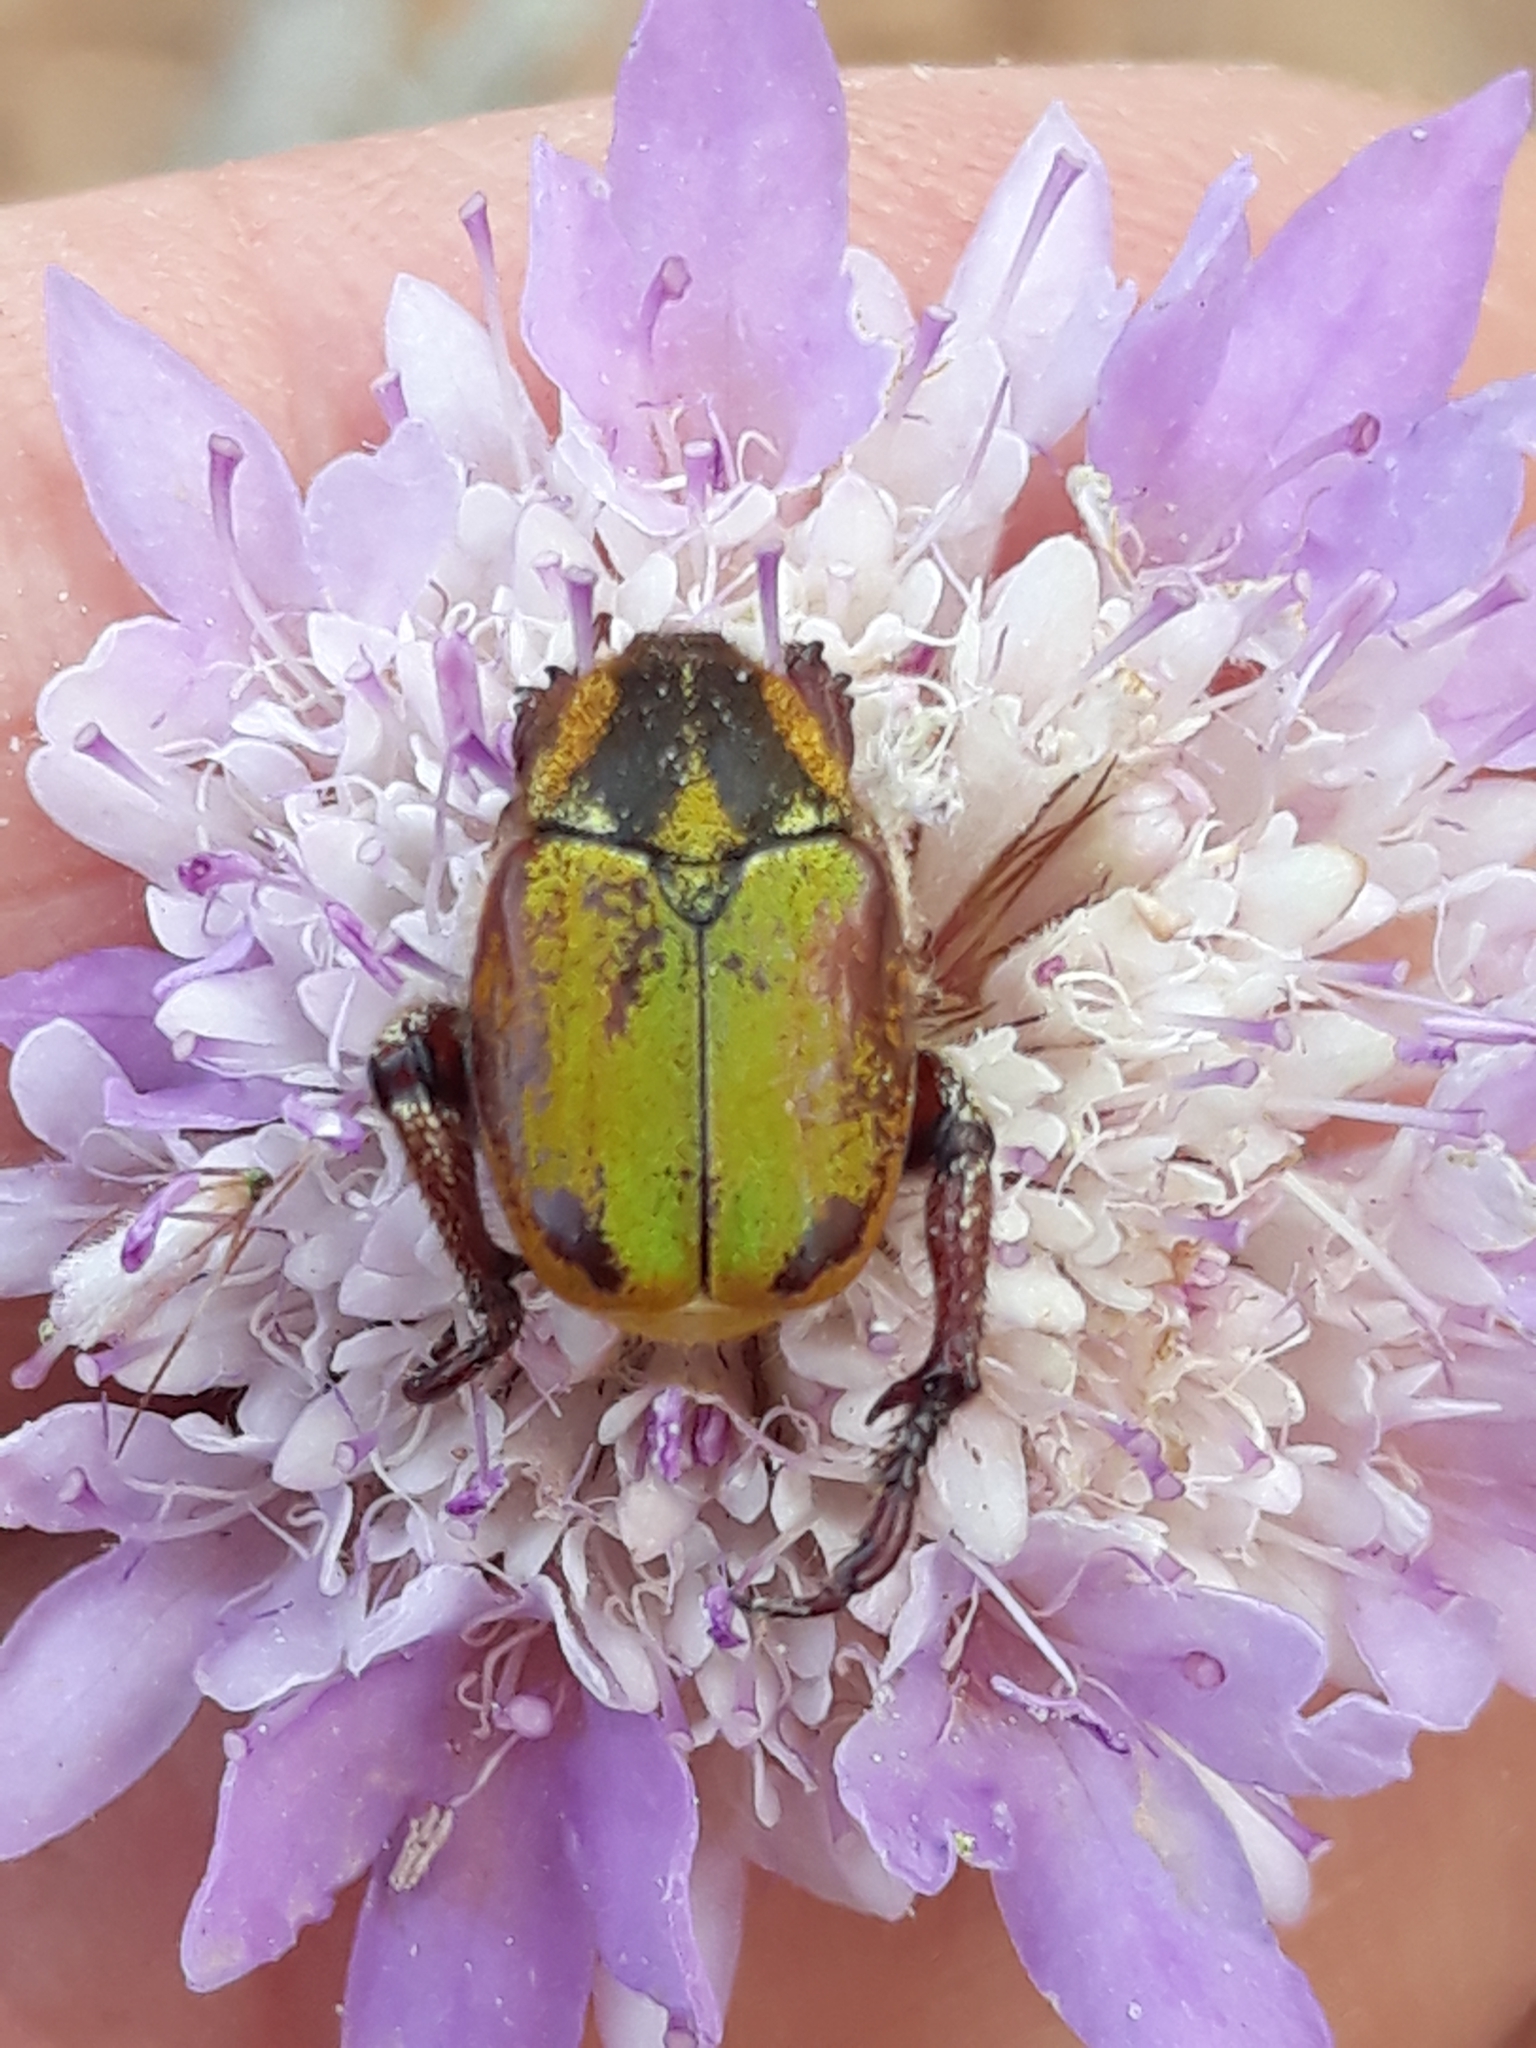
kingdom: Animalia
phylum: Arthropoda
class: Insecta
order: Coleoptera
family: Scarabaeidae
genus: Hoplia
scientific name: Hoplia argentea
